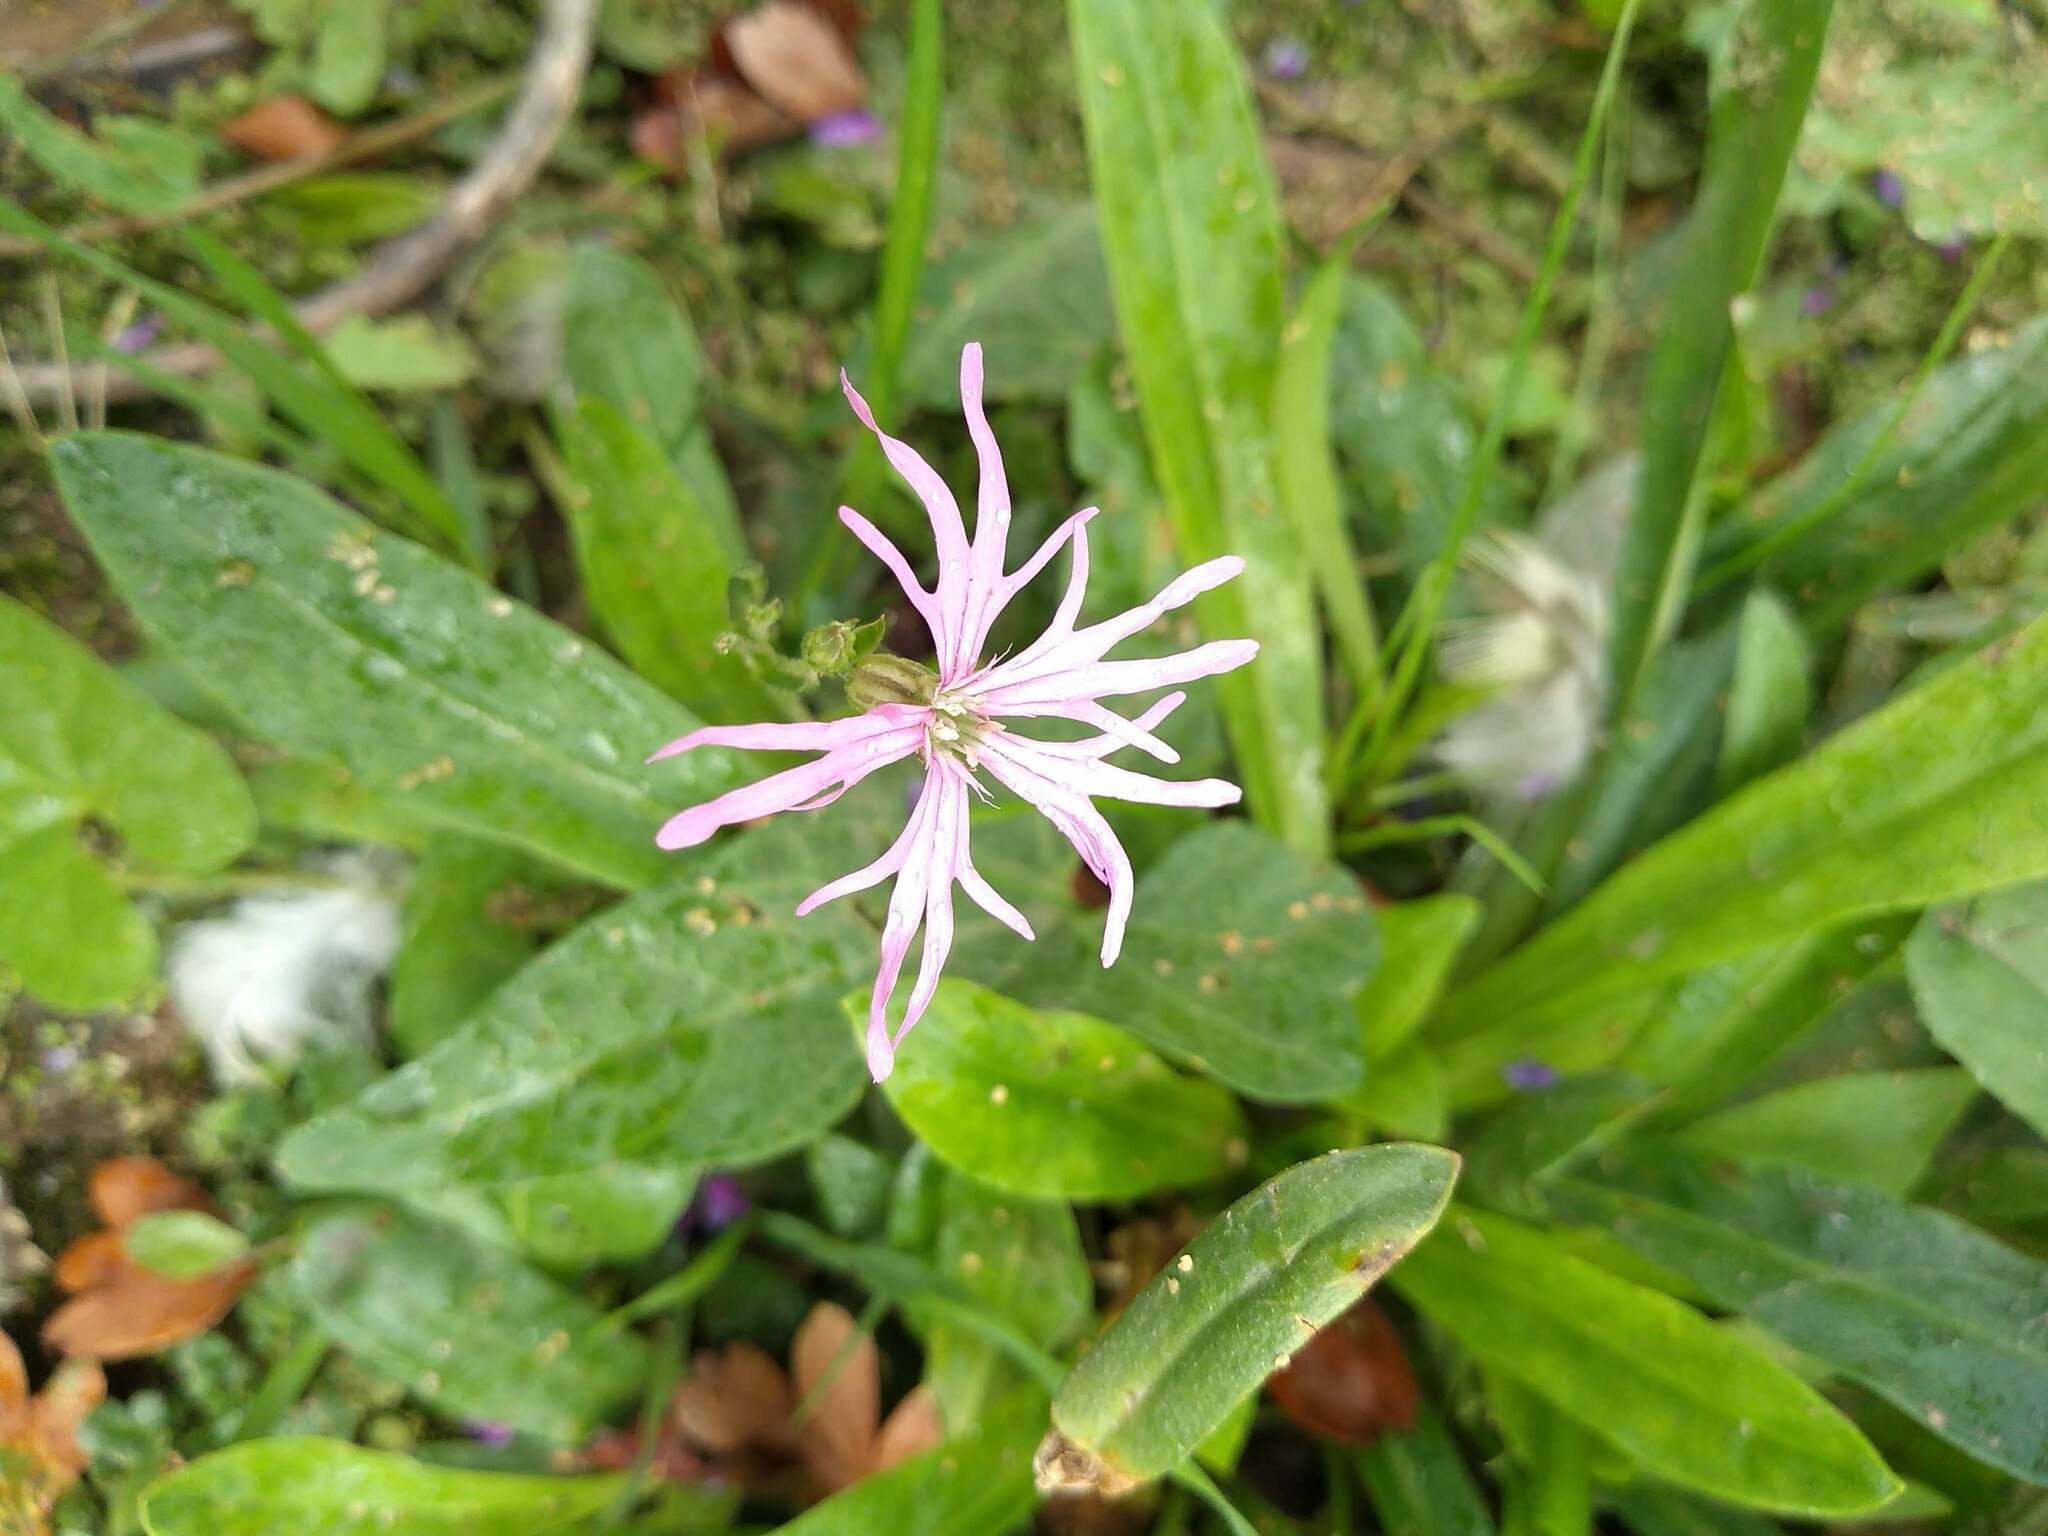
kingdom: Plantae
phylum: Tracheophyta
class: Magnoliopsida
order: Caryophyllales
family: Caryophyllaceae
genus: Silene
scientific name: Silene flos-cuculi
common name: Ragged-robin
